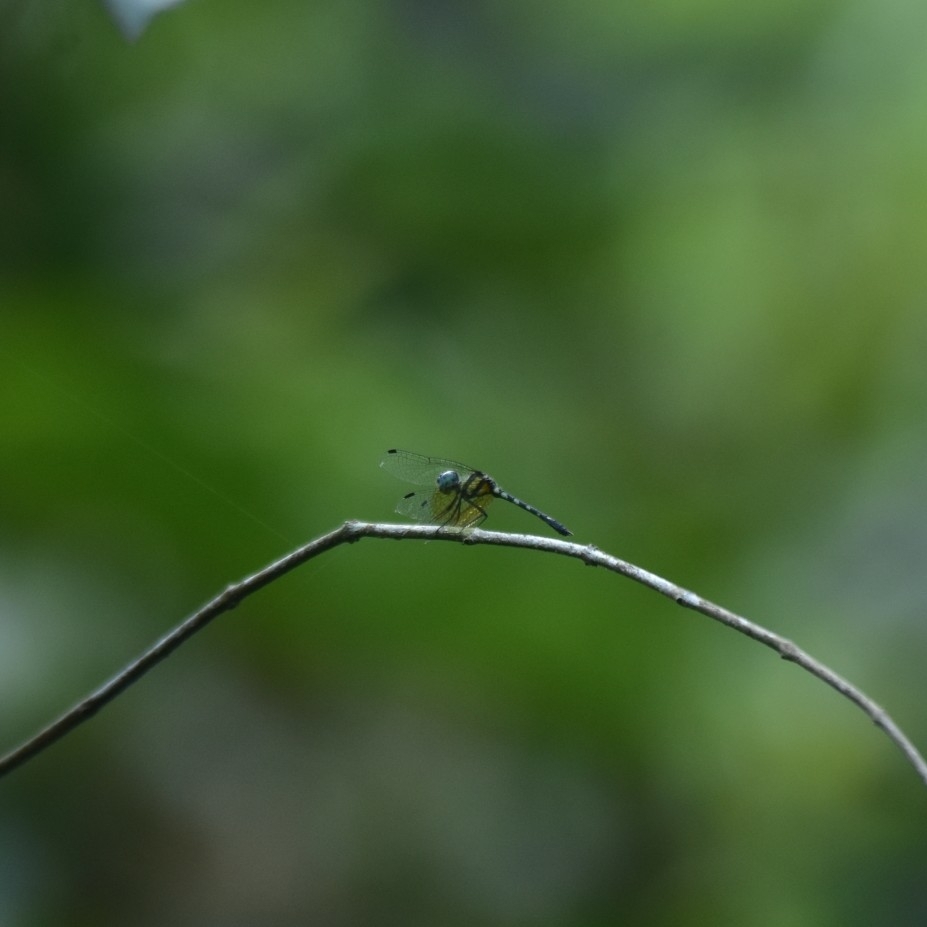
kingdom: Animalia
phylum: Arthropoda
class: Insecta
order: Odonata
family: Libellulidae
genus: Tetrathemis
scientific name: Tetrathemis platyptera
